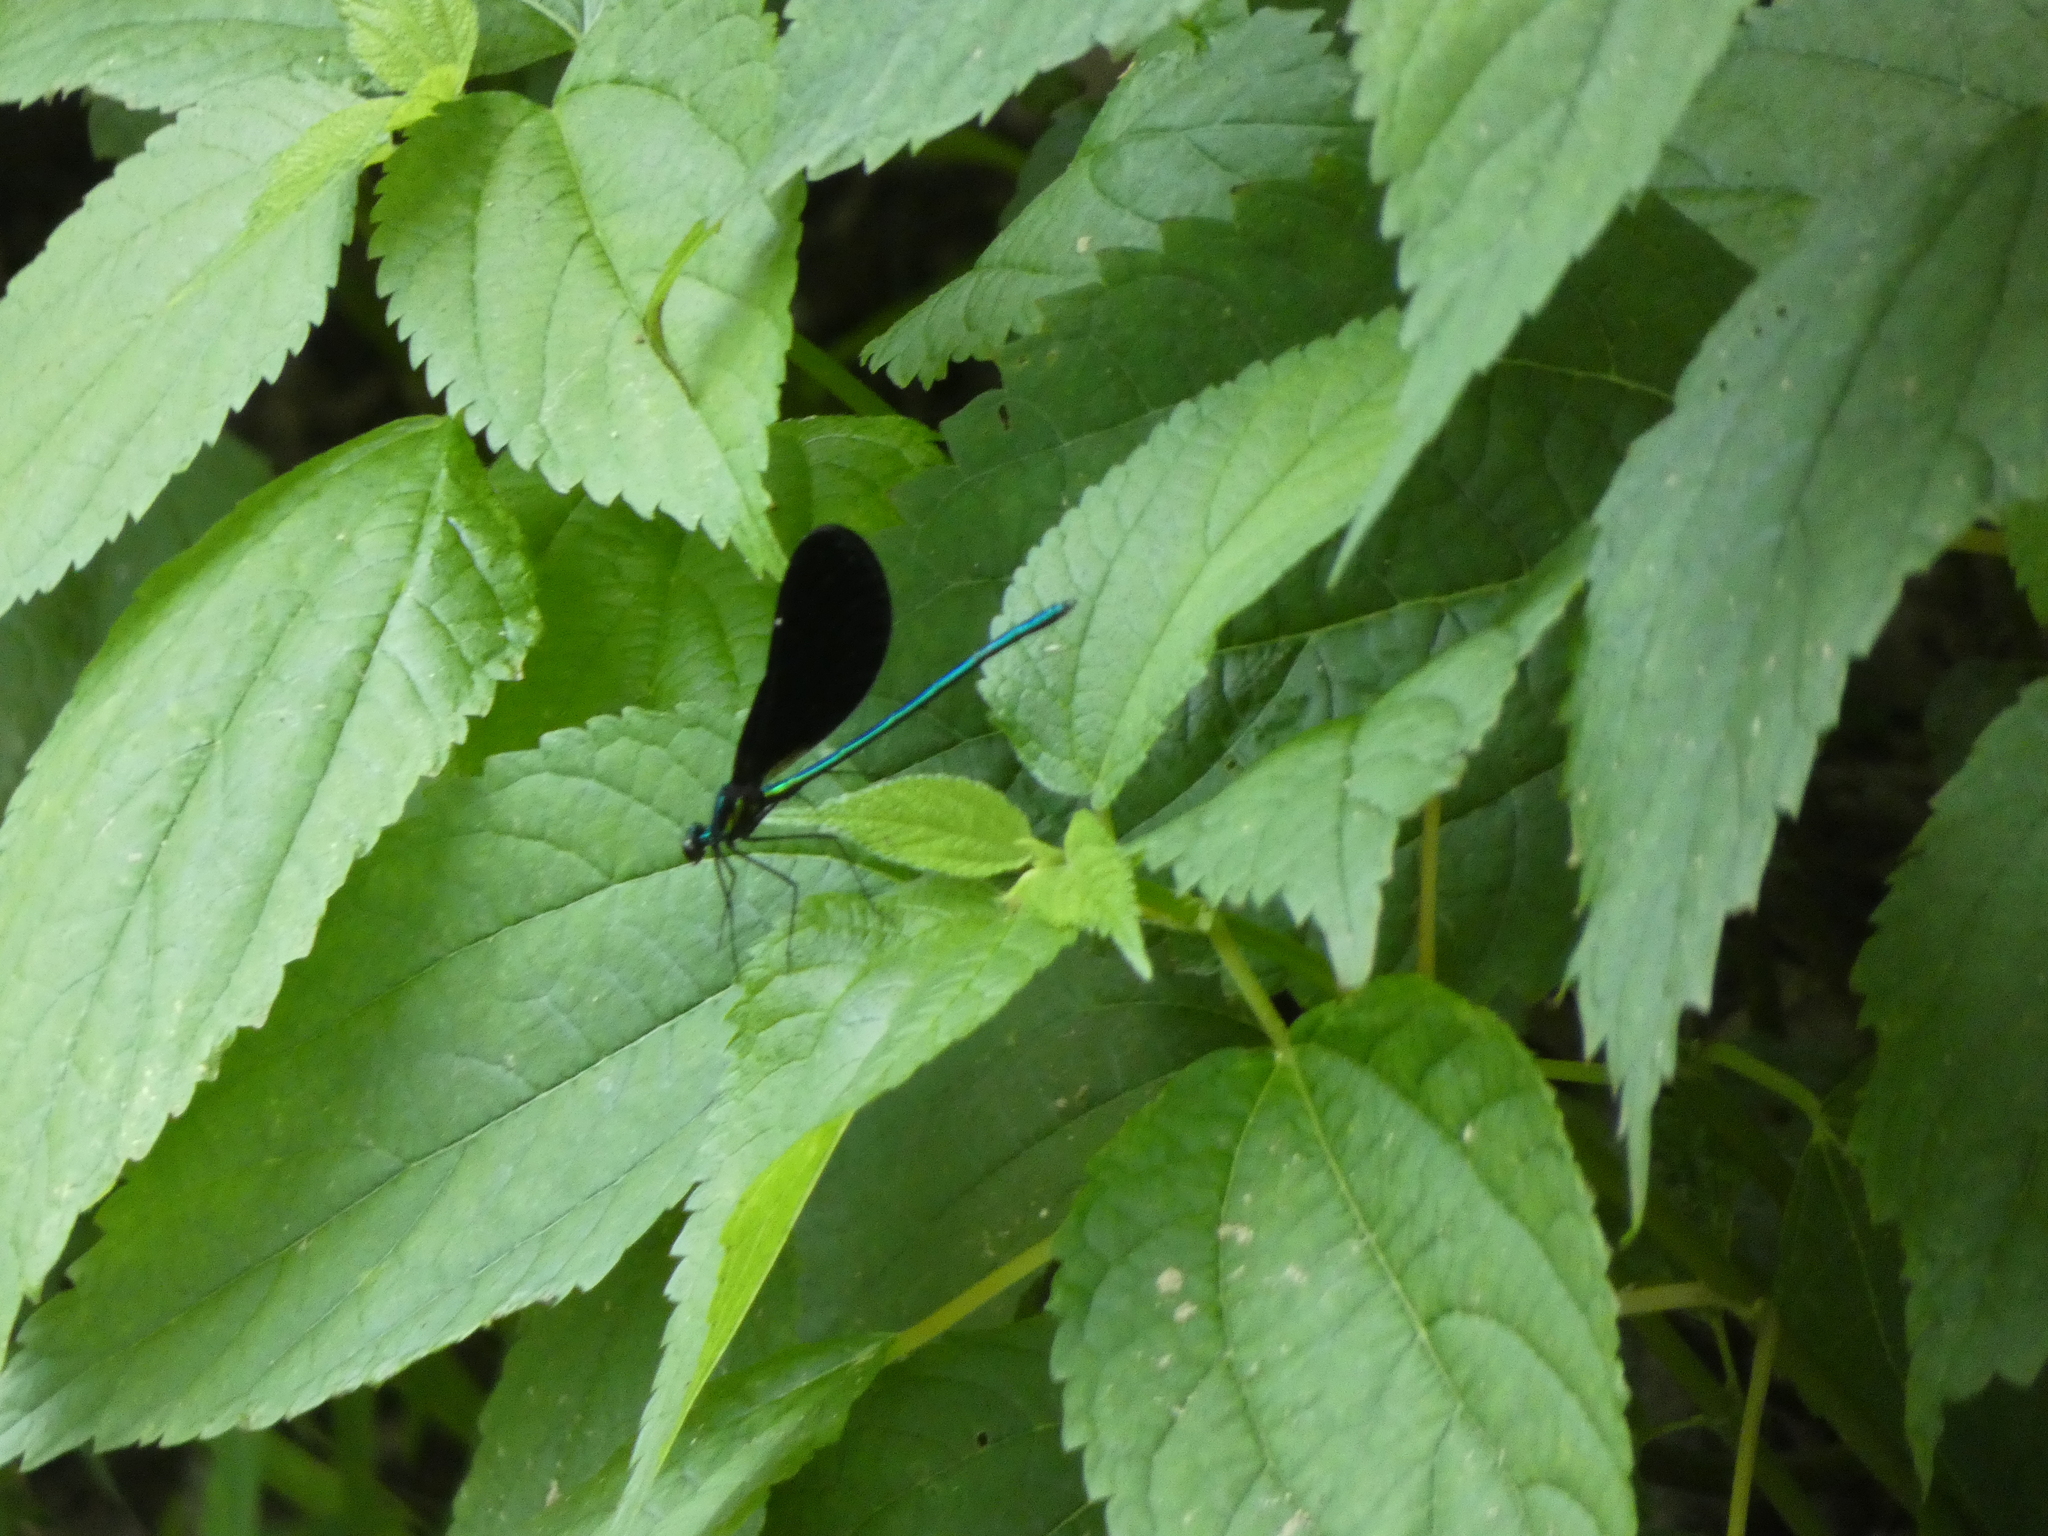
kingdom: Animalia
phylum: Arthropoda
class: Insecta
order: Odonata
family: Calopterygidae
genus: Calopteryx
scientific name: Calopteryx maculata
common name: Ebony jewelwing
